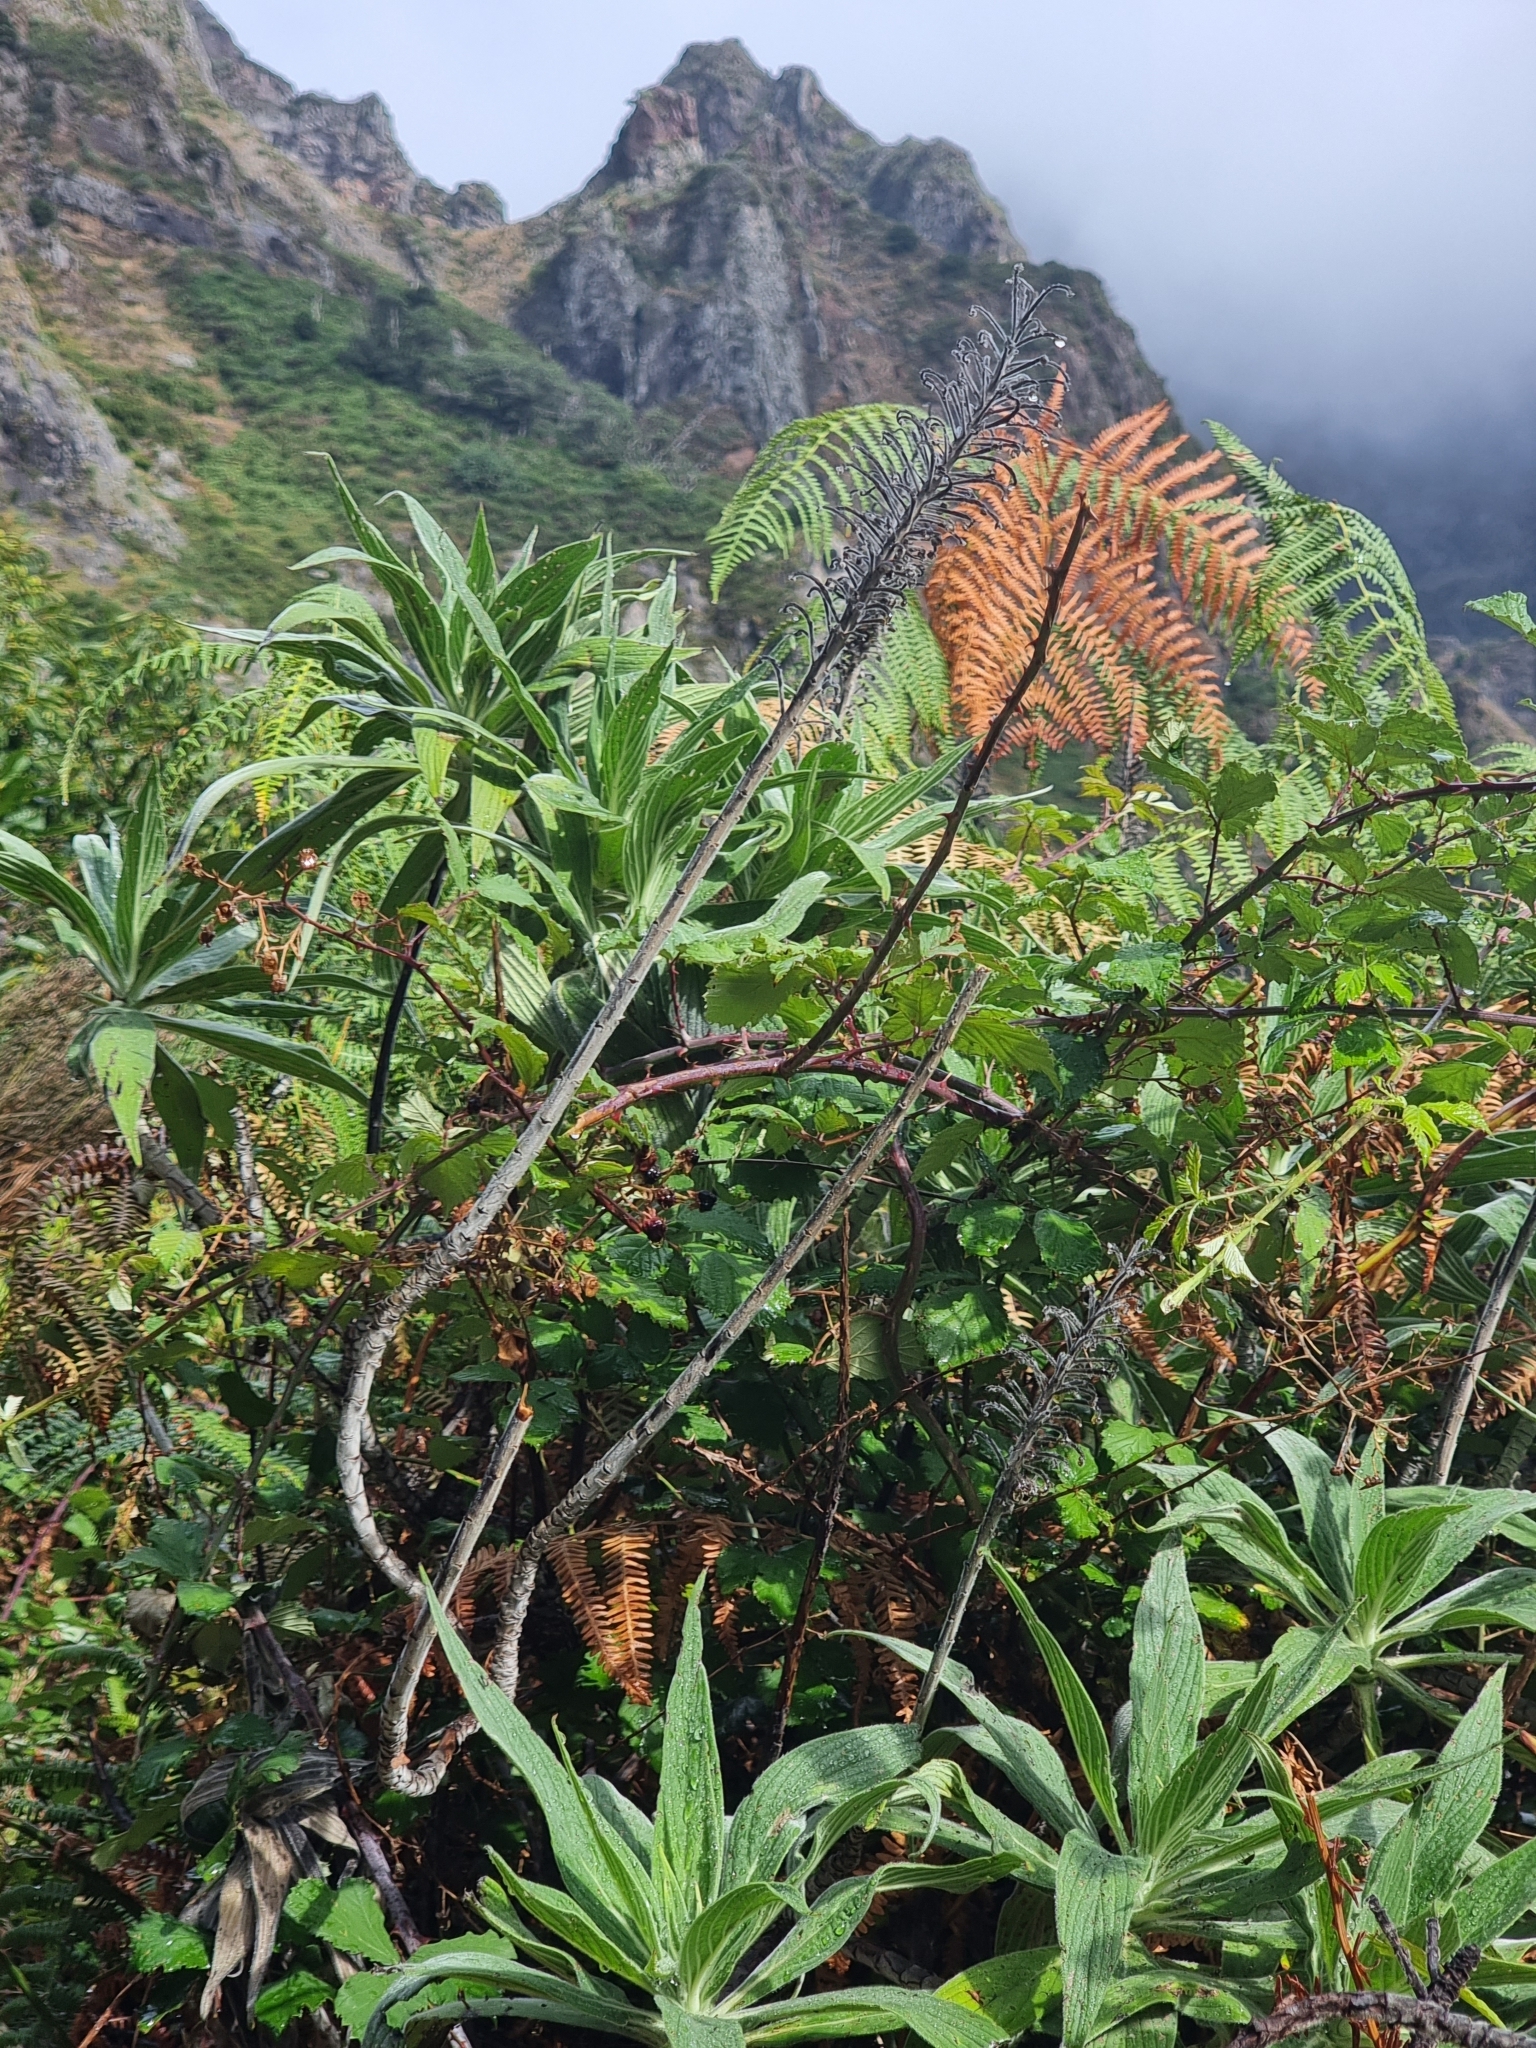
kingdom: Plantae
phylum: Tracheophyta
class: Magnoliopsida
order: Boraginales
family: Boraginaceae
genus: Echium
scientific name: Echium candicans
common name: Pride of madeira
